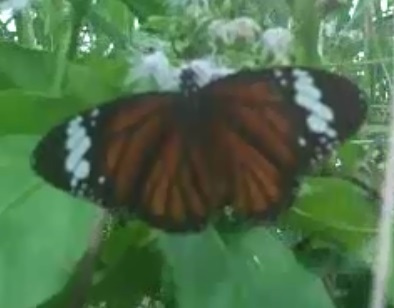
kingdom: Animalia
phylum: Arthropoda
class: Insecta
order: Lepidoptera
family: Nymphalidae
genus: Danaus
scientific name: Danaus genutia
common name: Common tiger butterfly
